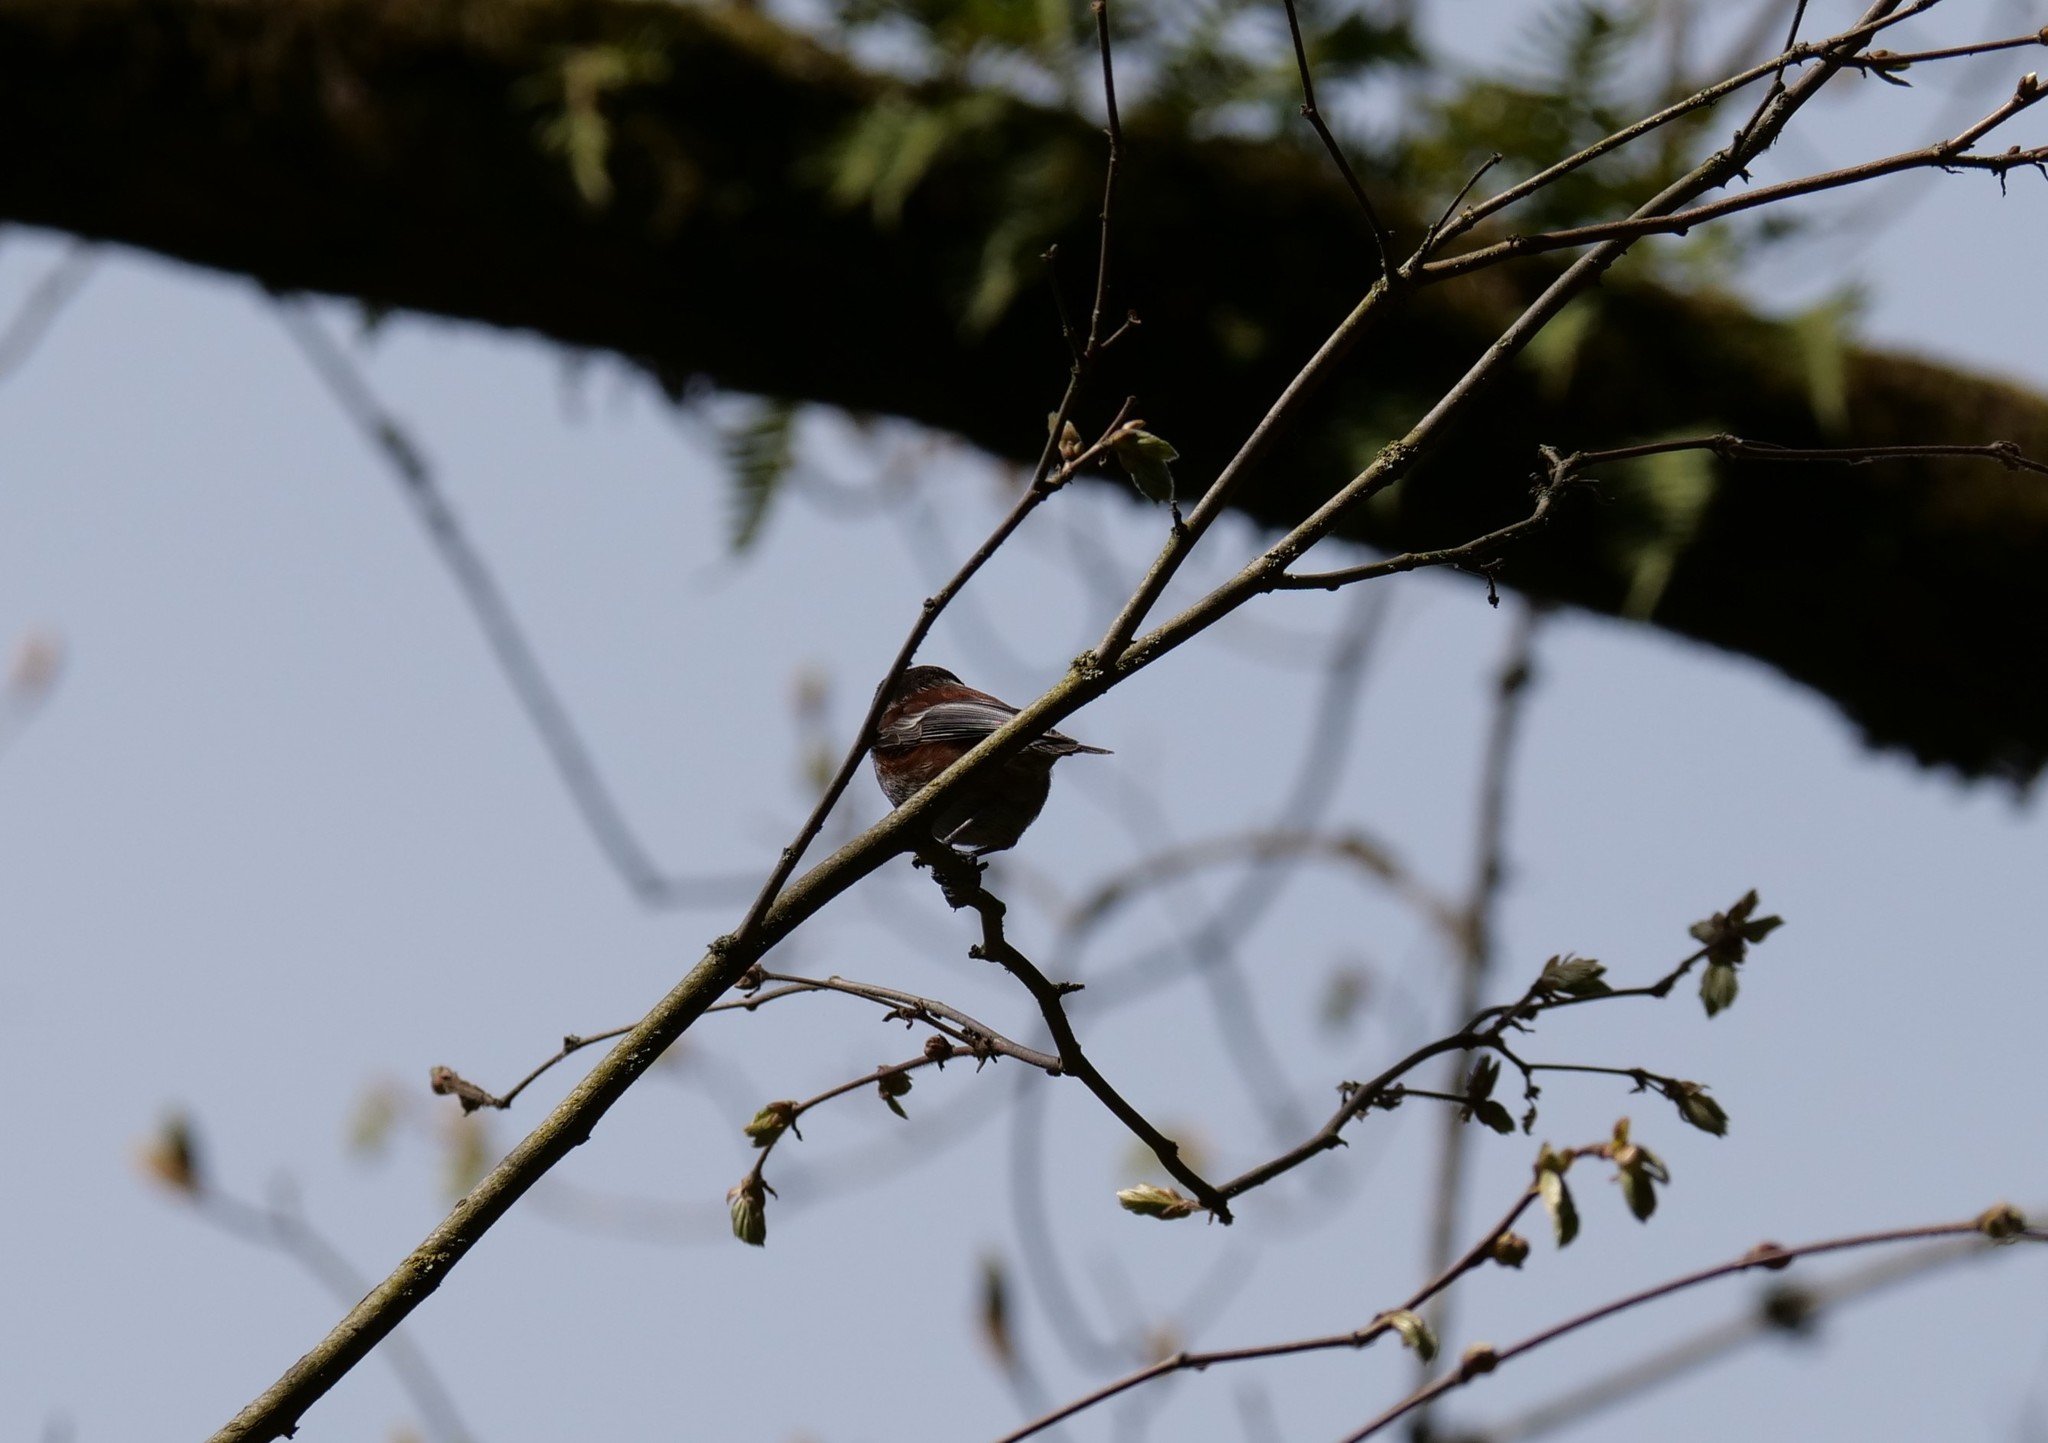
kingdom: Animalia
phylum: Chordata
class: Aves
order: Passeriformes
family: Paridae
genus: Poecile
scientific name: Poecile rufescens
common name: Chestnut-backed chickadee
